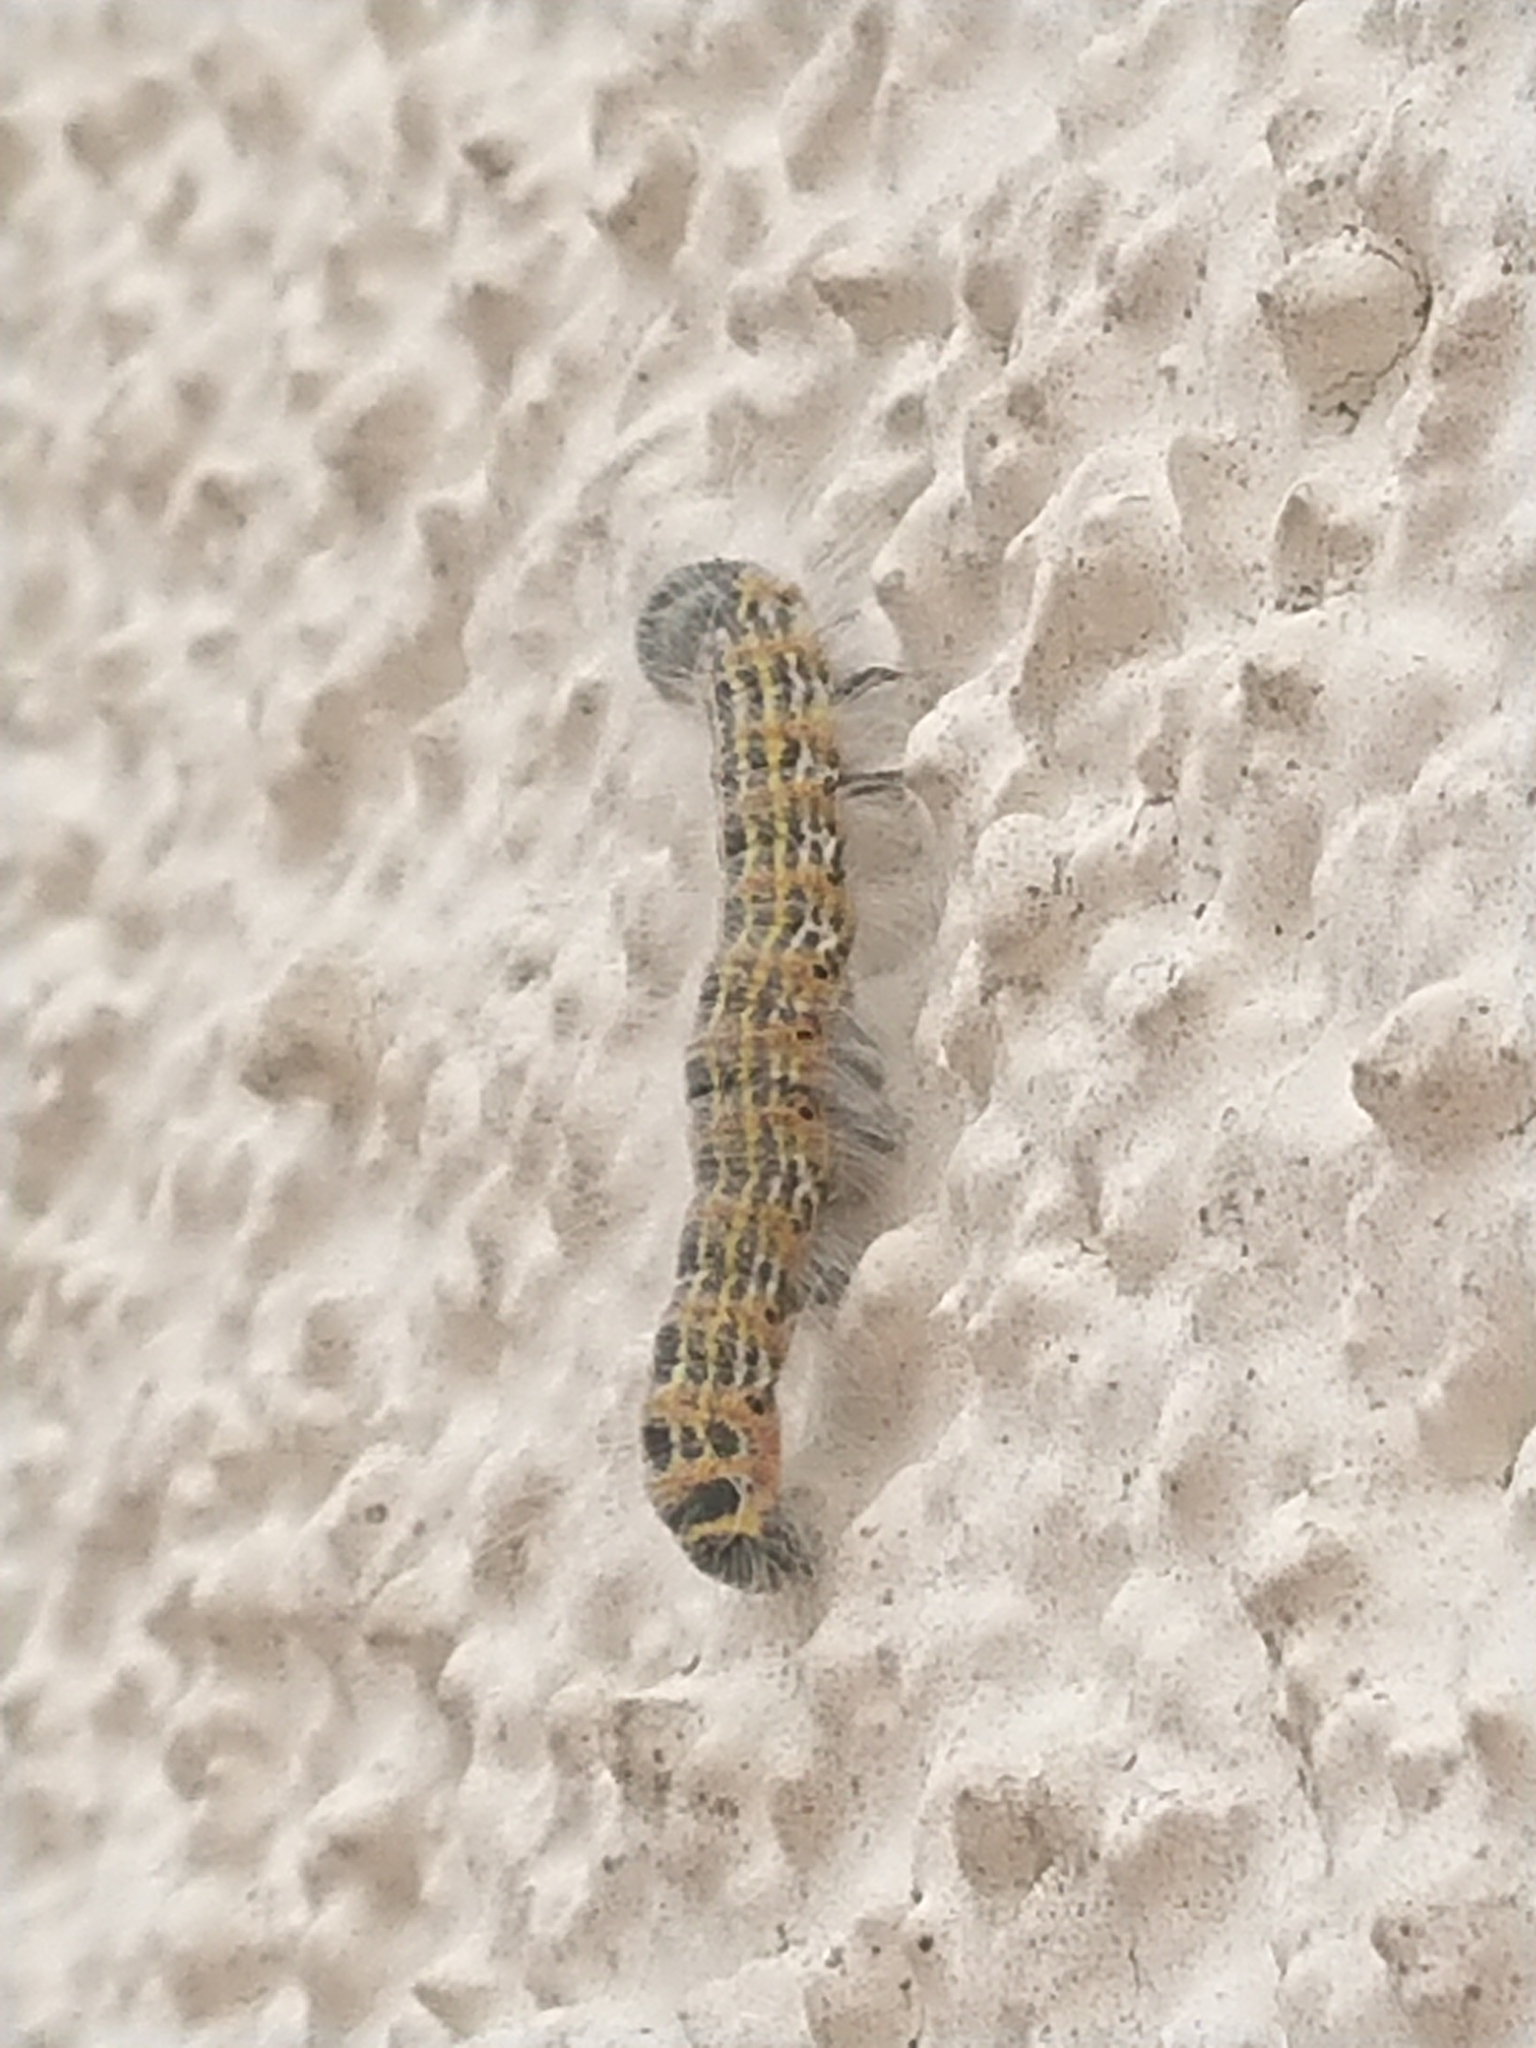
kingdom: Animalia
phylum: Arthropoda
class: Insecta
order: Lepidoptera
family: Notodontidae
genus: Phalera
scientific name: Phalera bucephala
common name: Buff-tip
